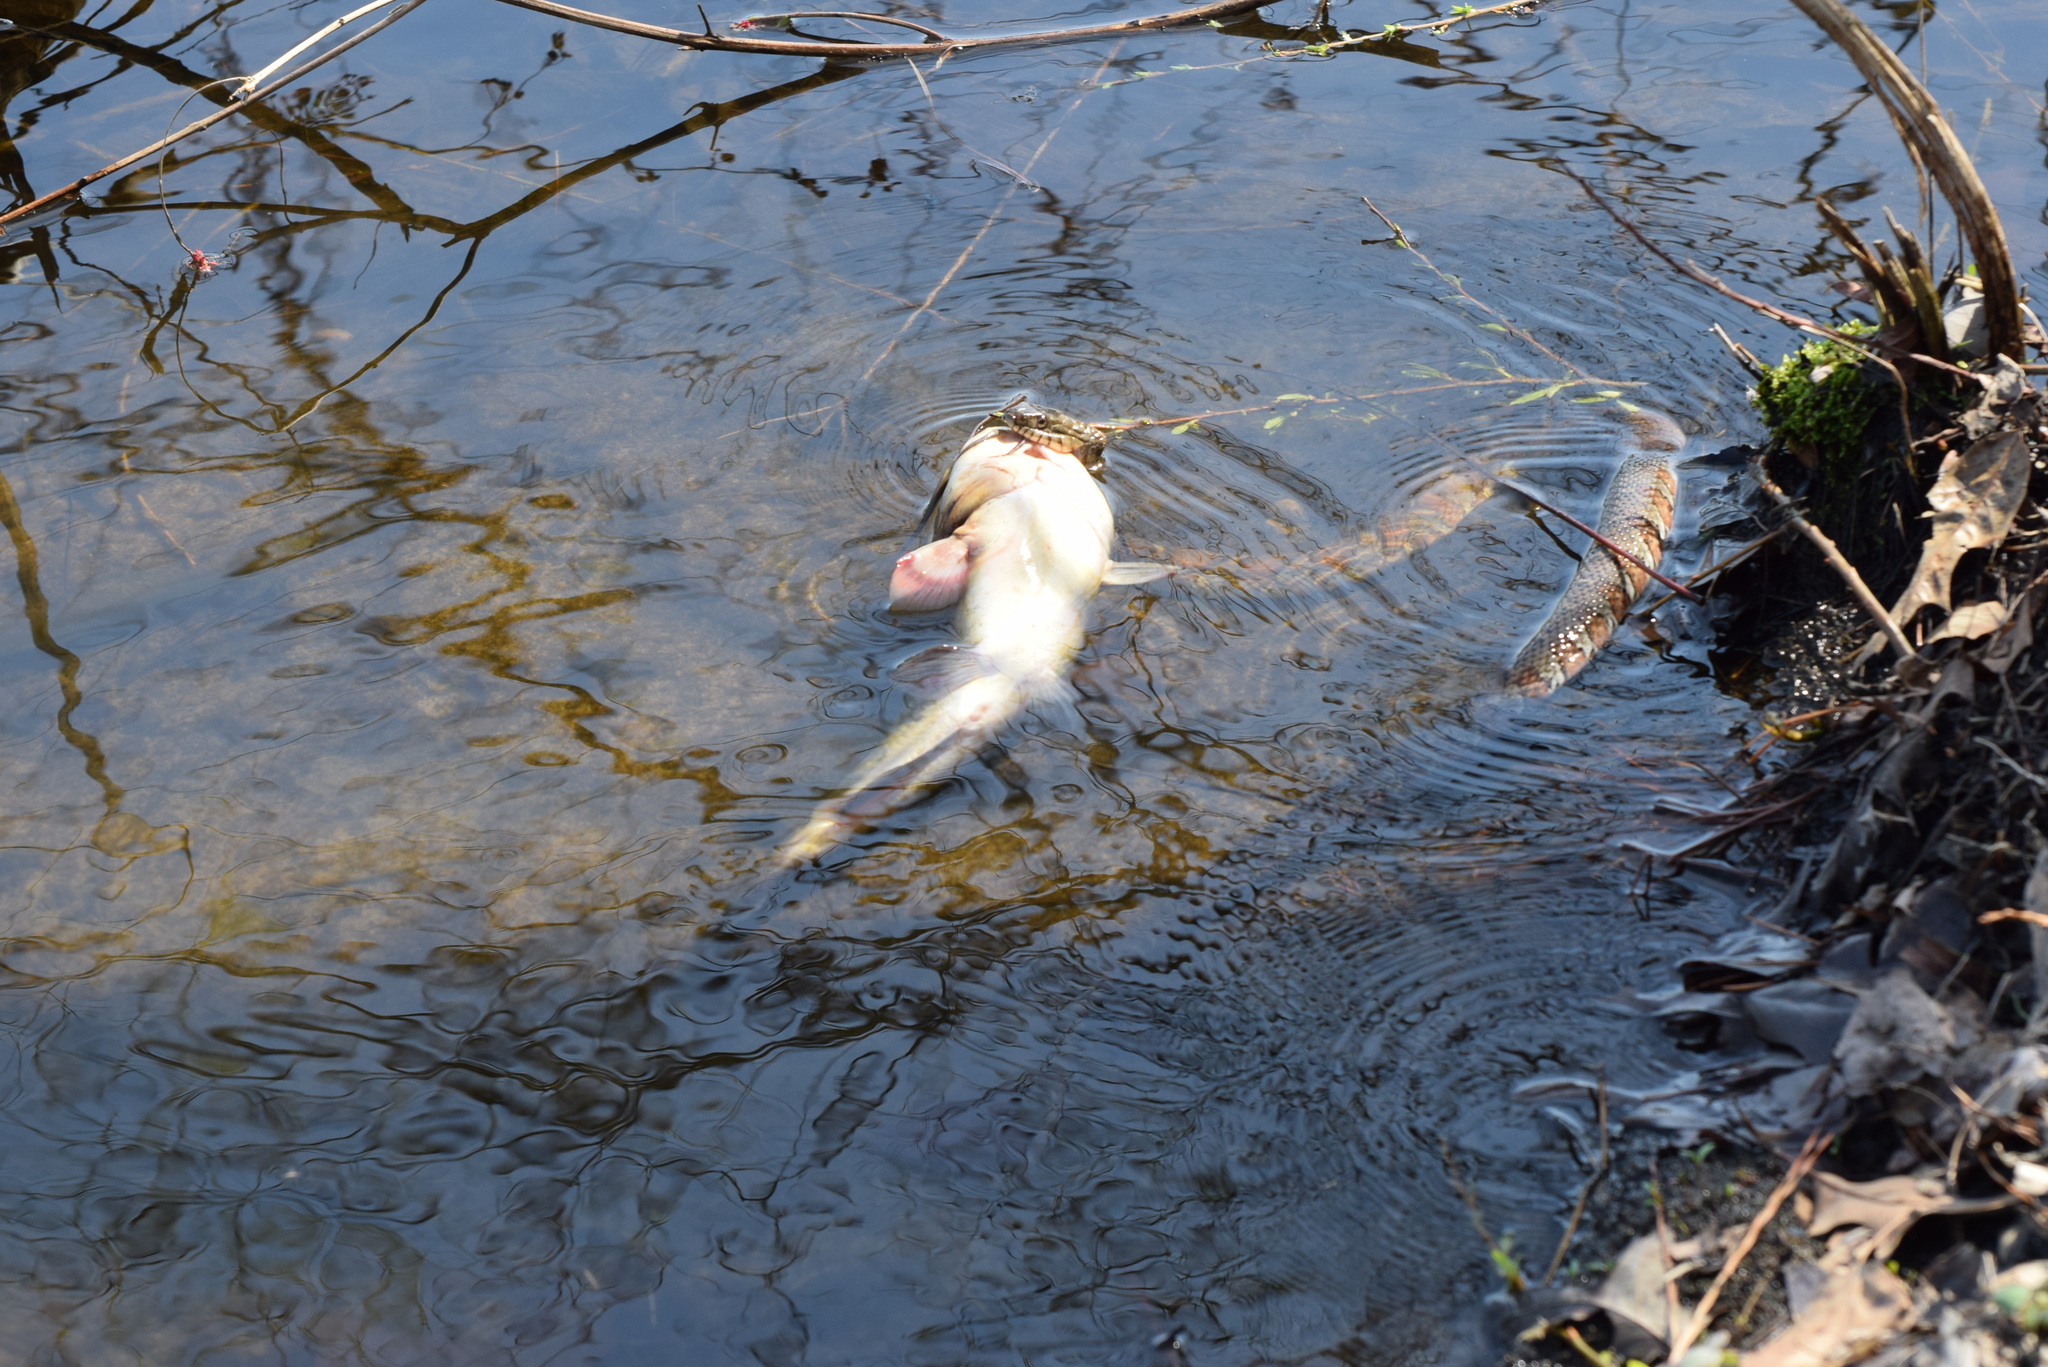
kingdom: Animalia
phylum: Chordata
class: Squamata
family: Colubridae
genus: Nerodia
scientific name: Nerodia sipedon
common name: Northern water snake
